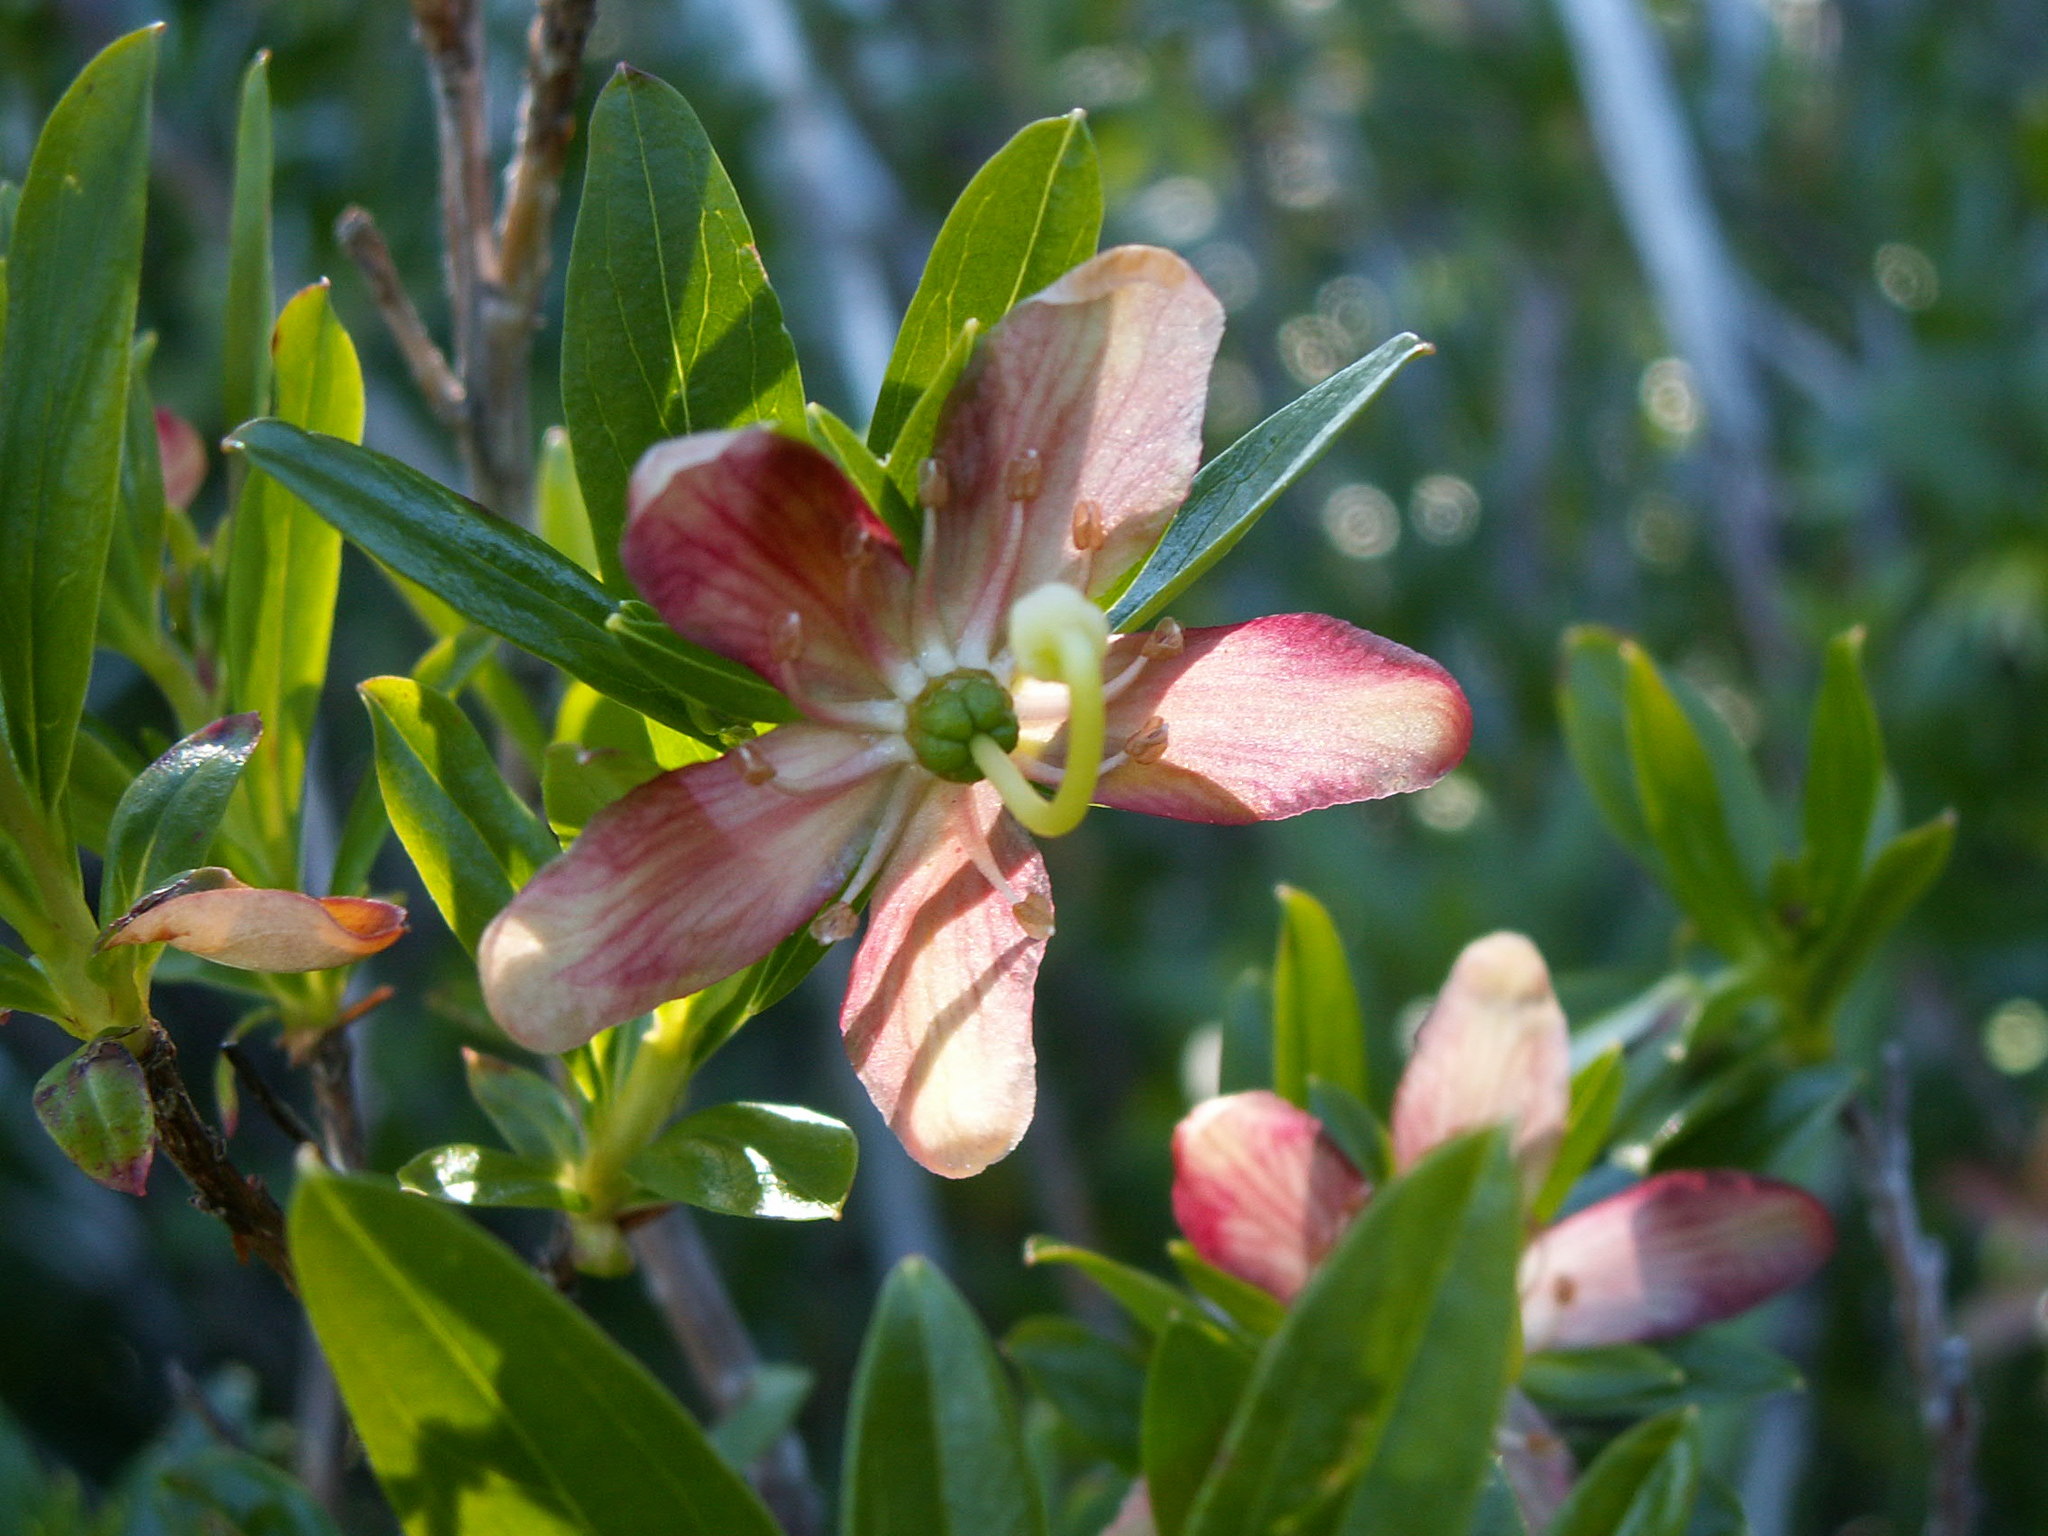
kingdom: Plantae
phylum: Tracheophyta
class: Magnoliopsida
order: Ericales
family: Ericaceae
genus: Elliottia
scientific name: Elliottia pyroliflora
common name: Copperbush
